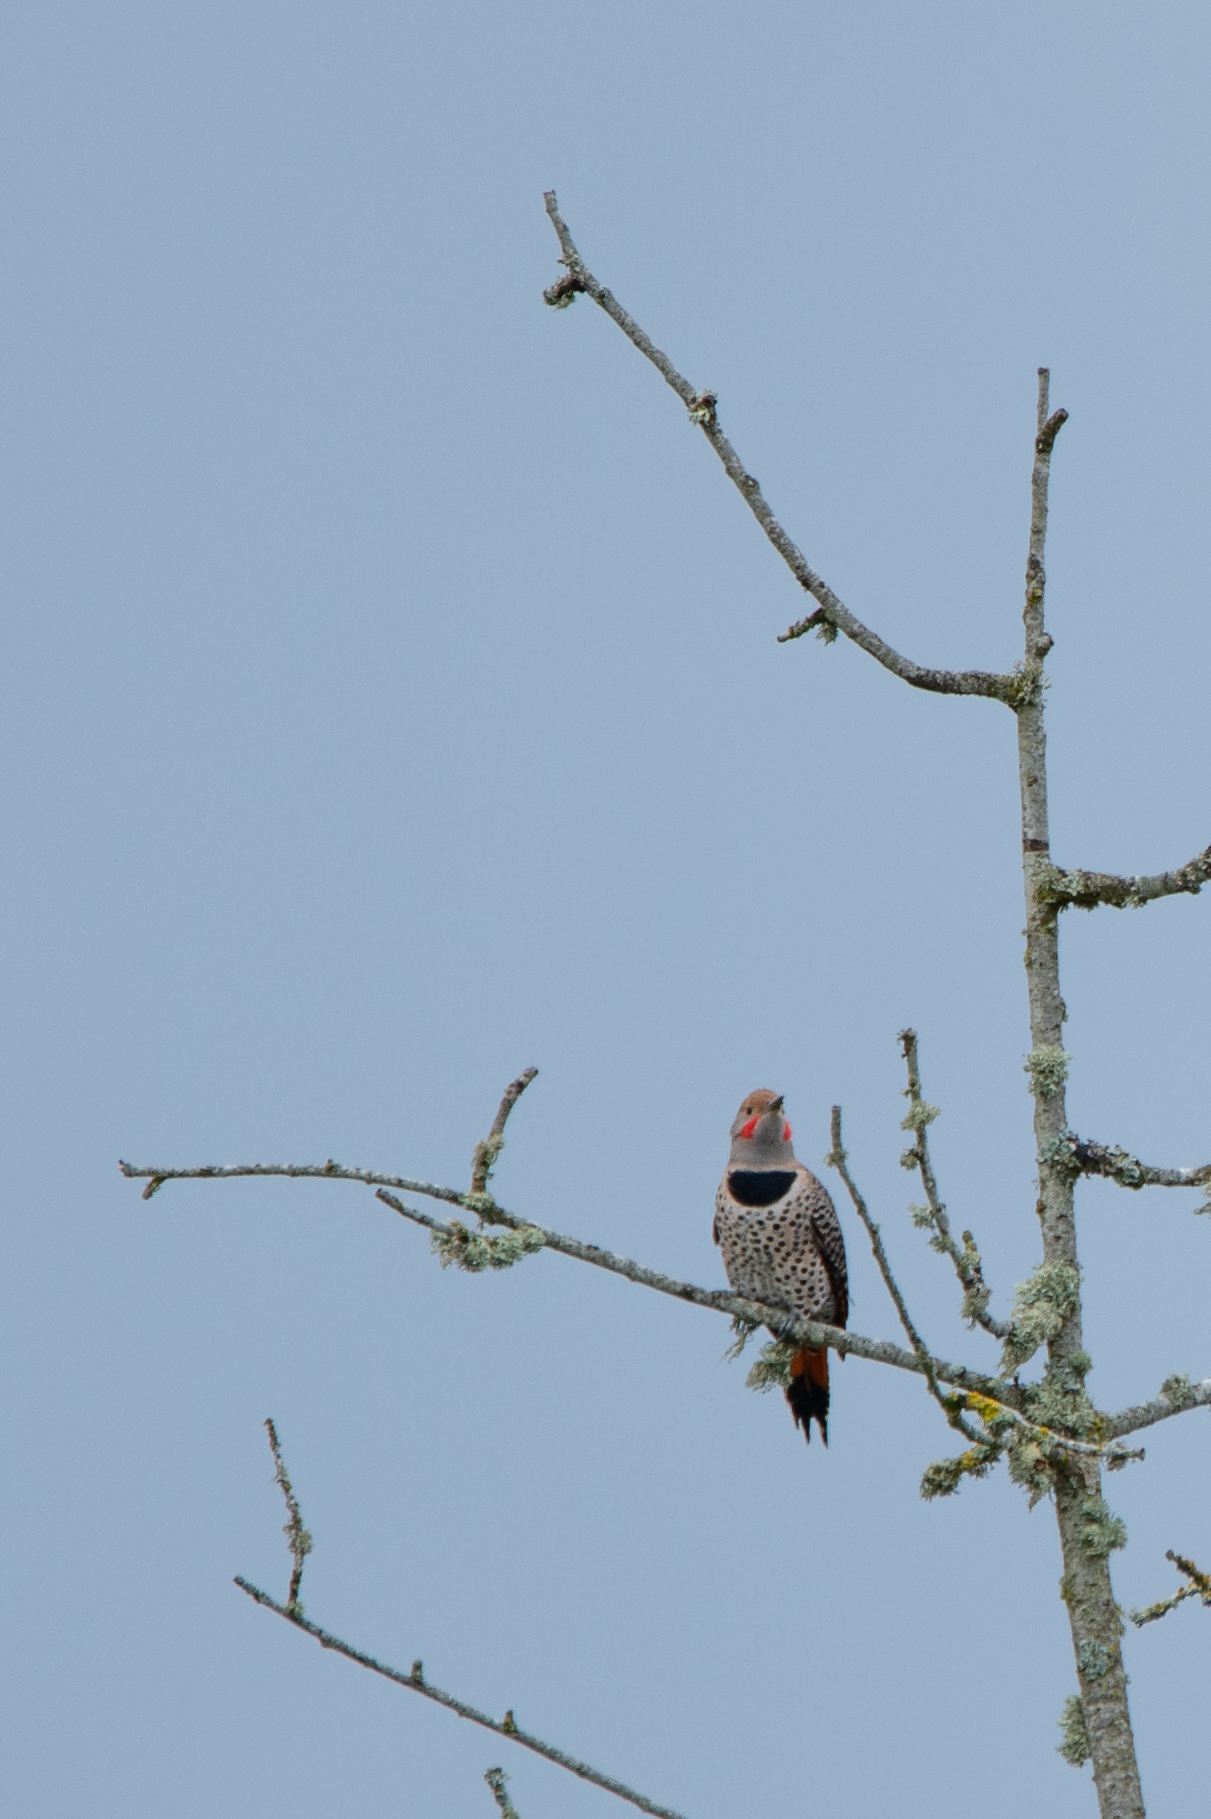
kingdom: Animalia
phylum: Chordata
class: Aves
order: Piciformes
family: Picidae
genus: Colaptes
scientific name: Colaptes auratus
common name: Northern flicker
